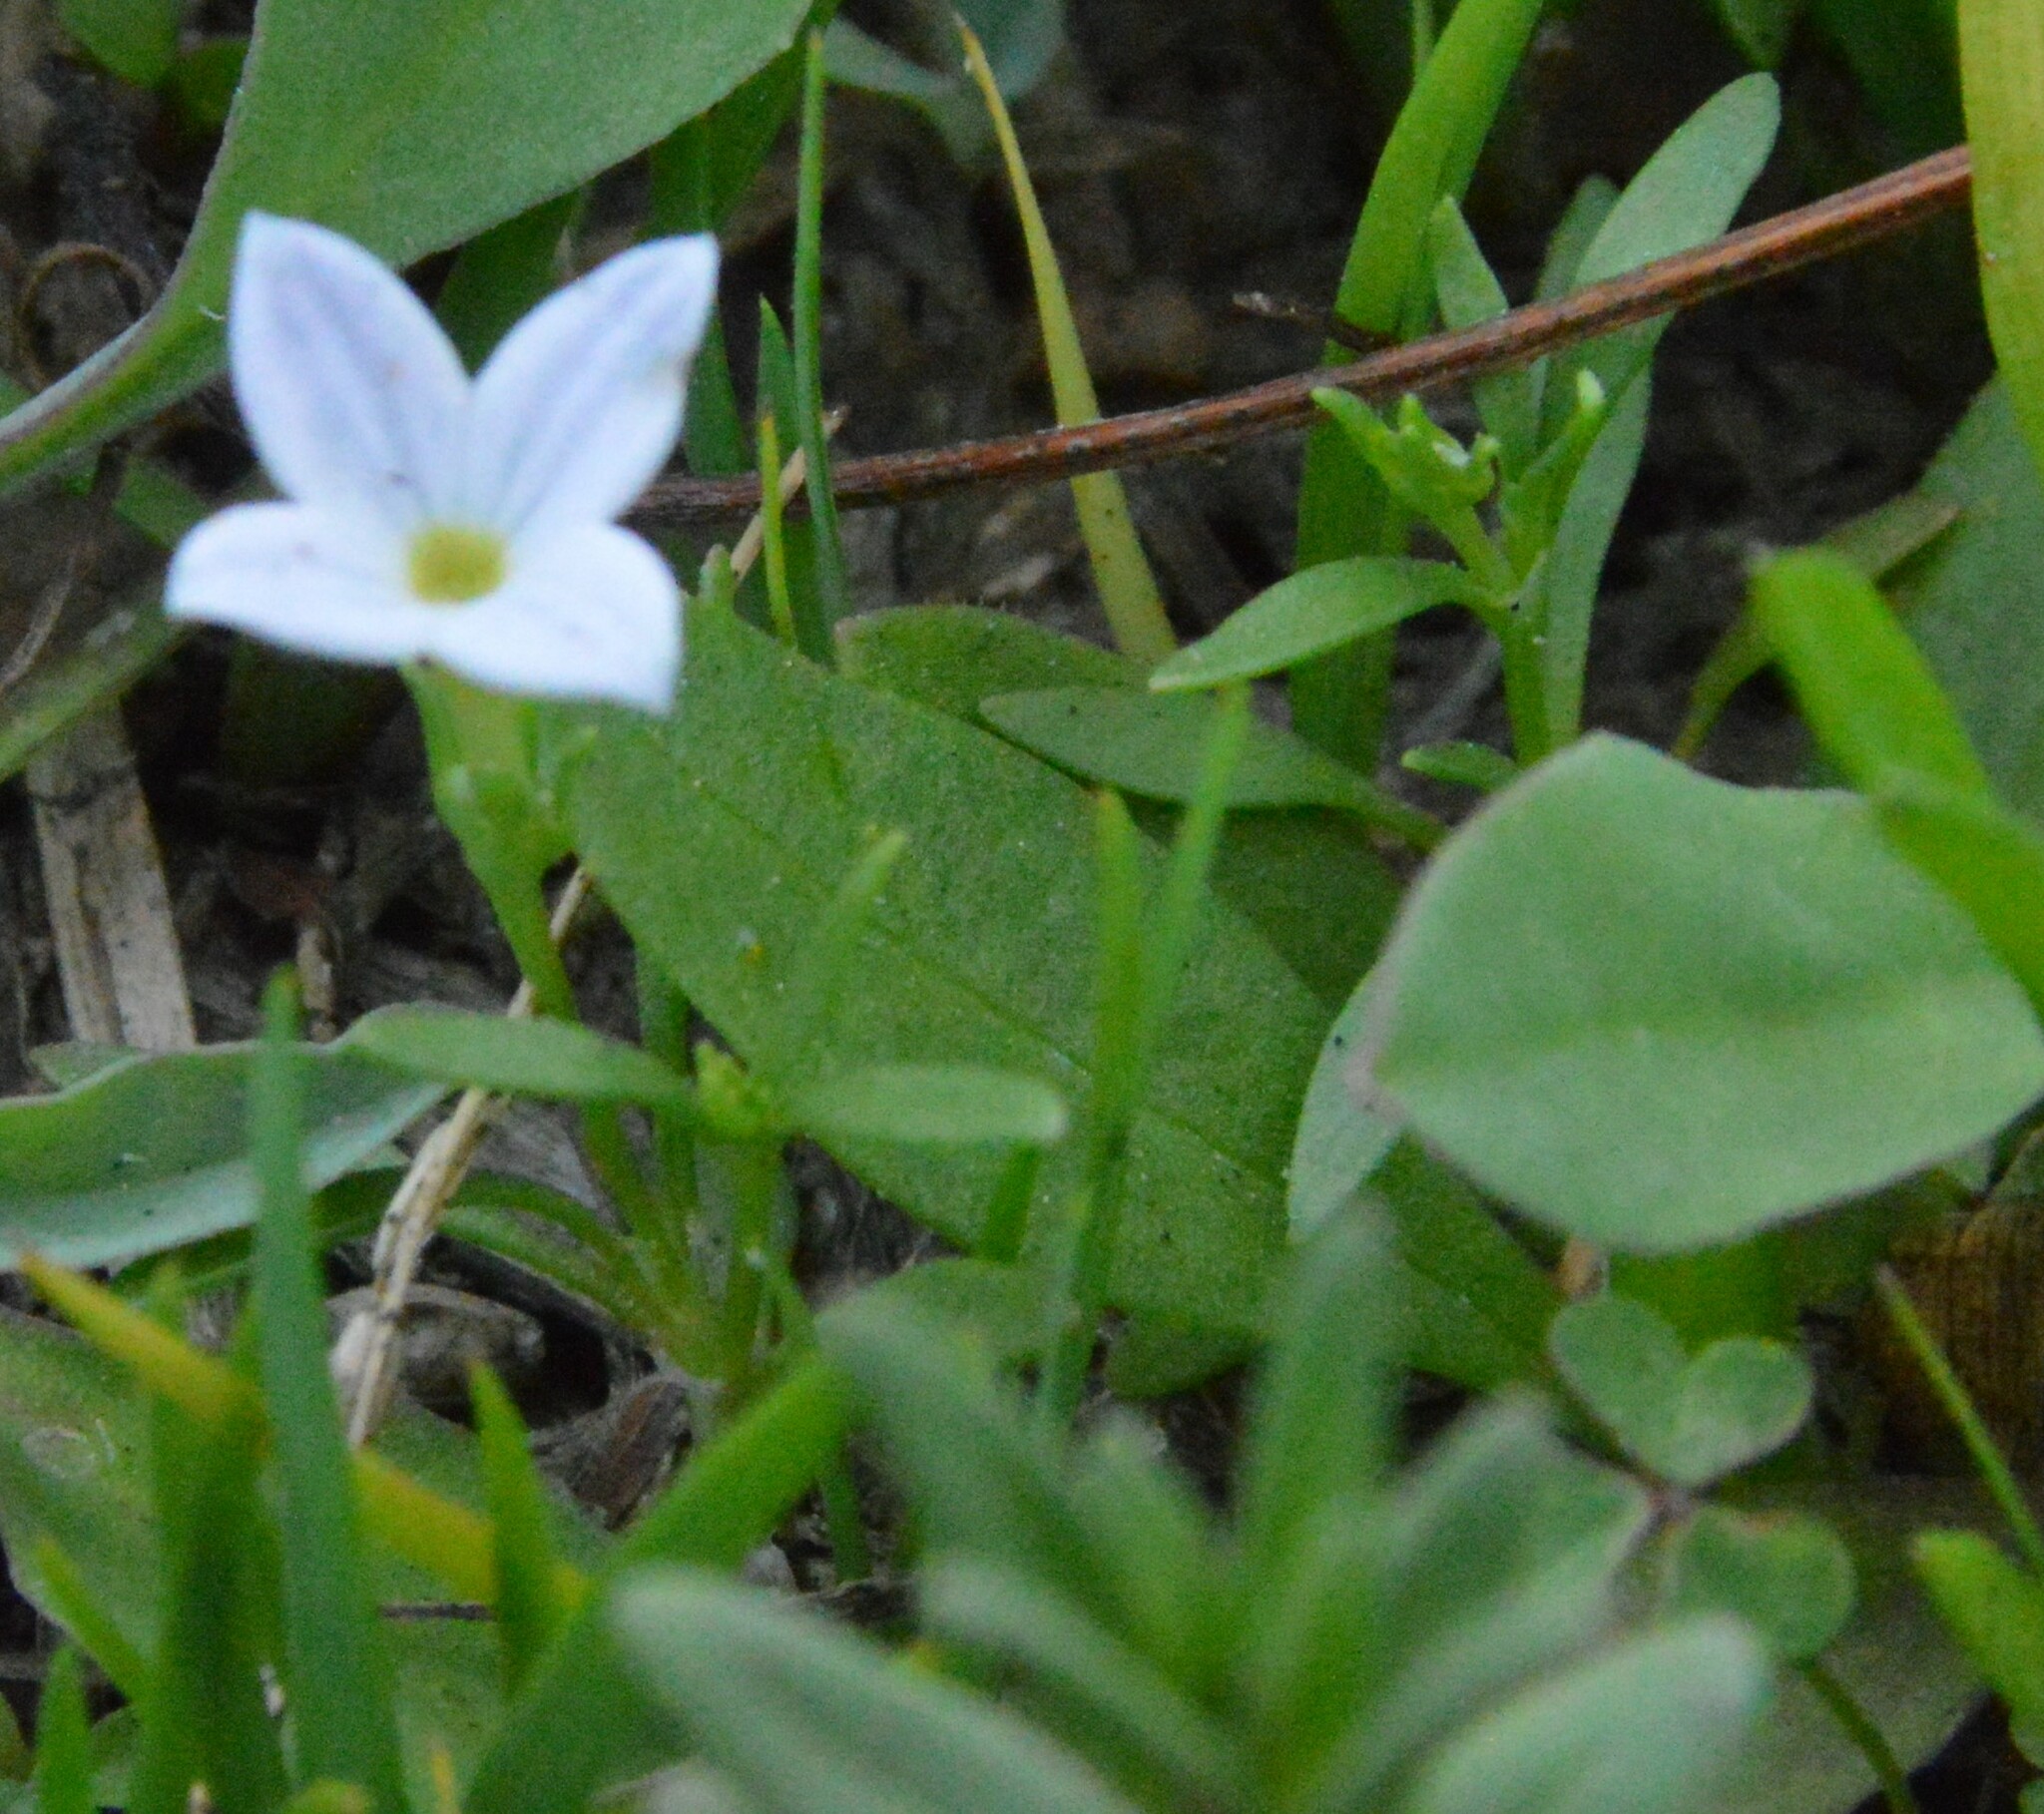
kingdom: Plantae
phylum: Tracheophyta
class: Magnoliopsida
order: Gentianales
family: Rubiaceae
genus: Houstonia
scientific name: Houstonia rosea
